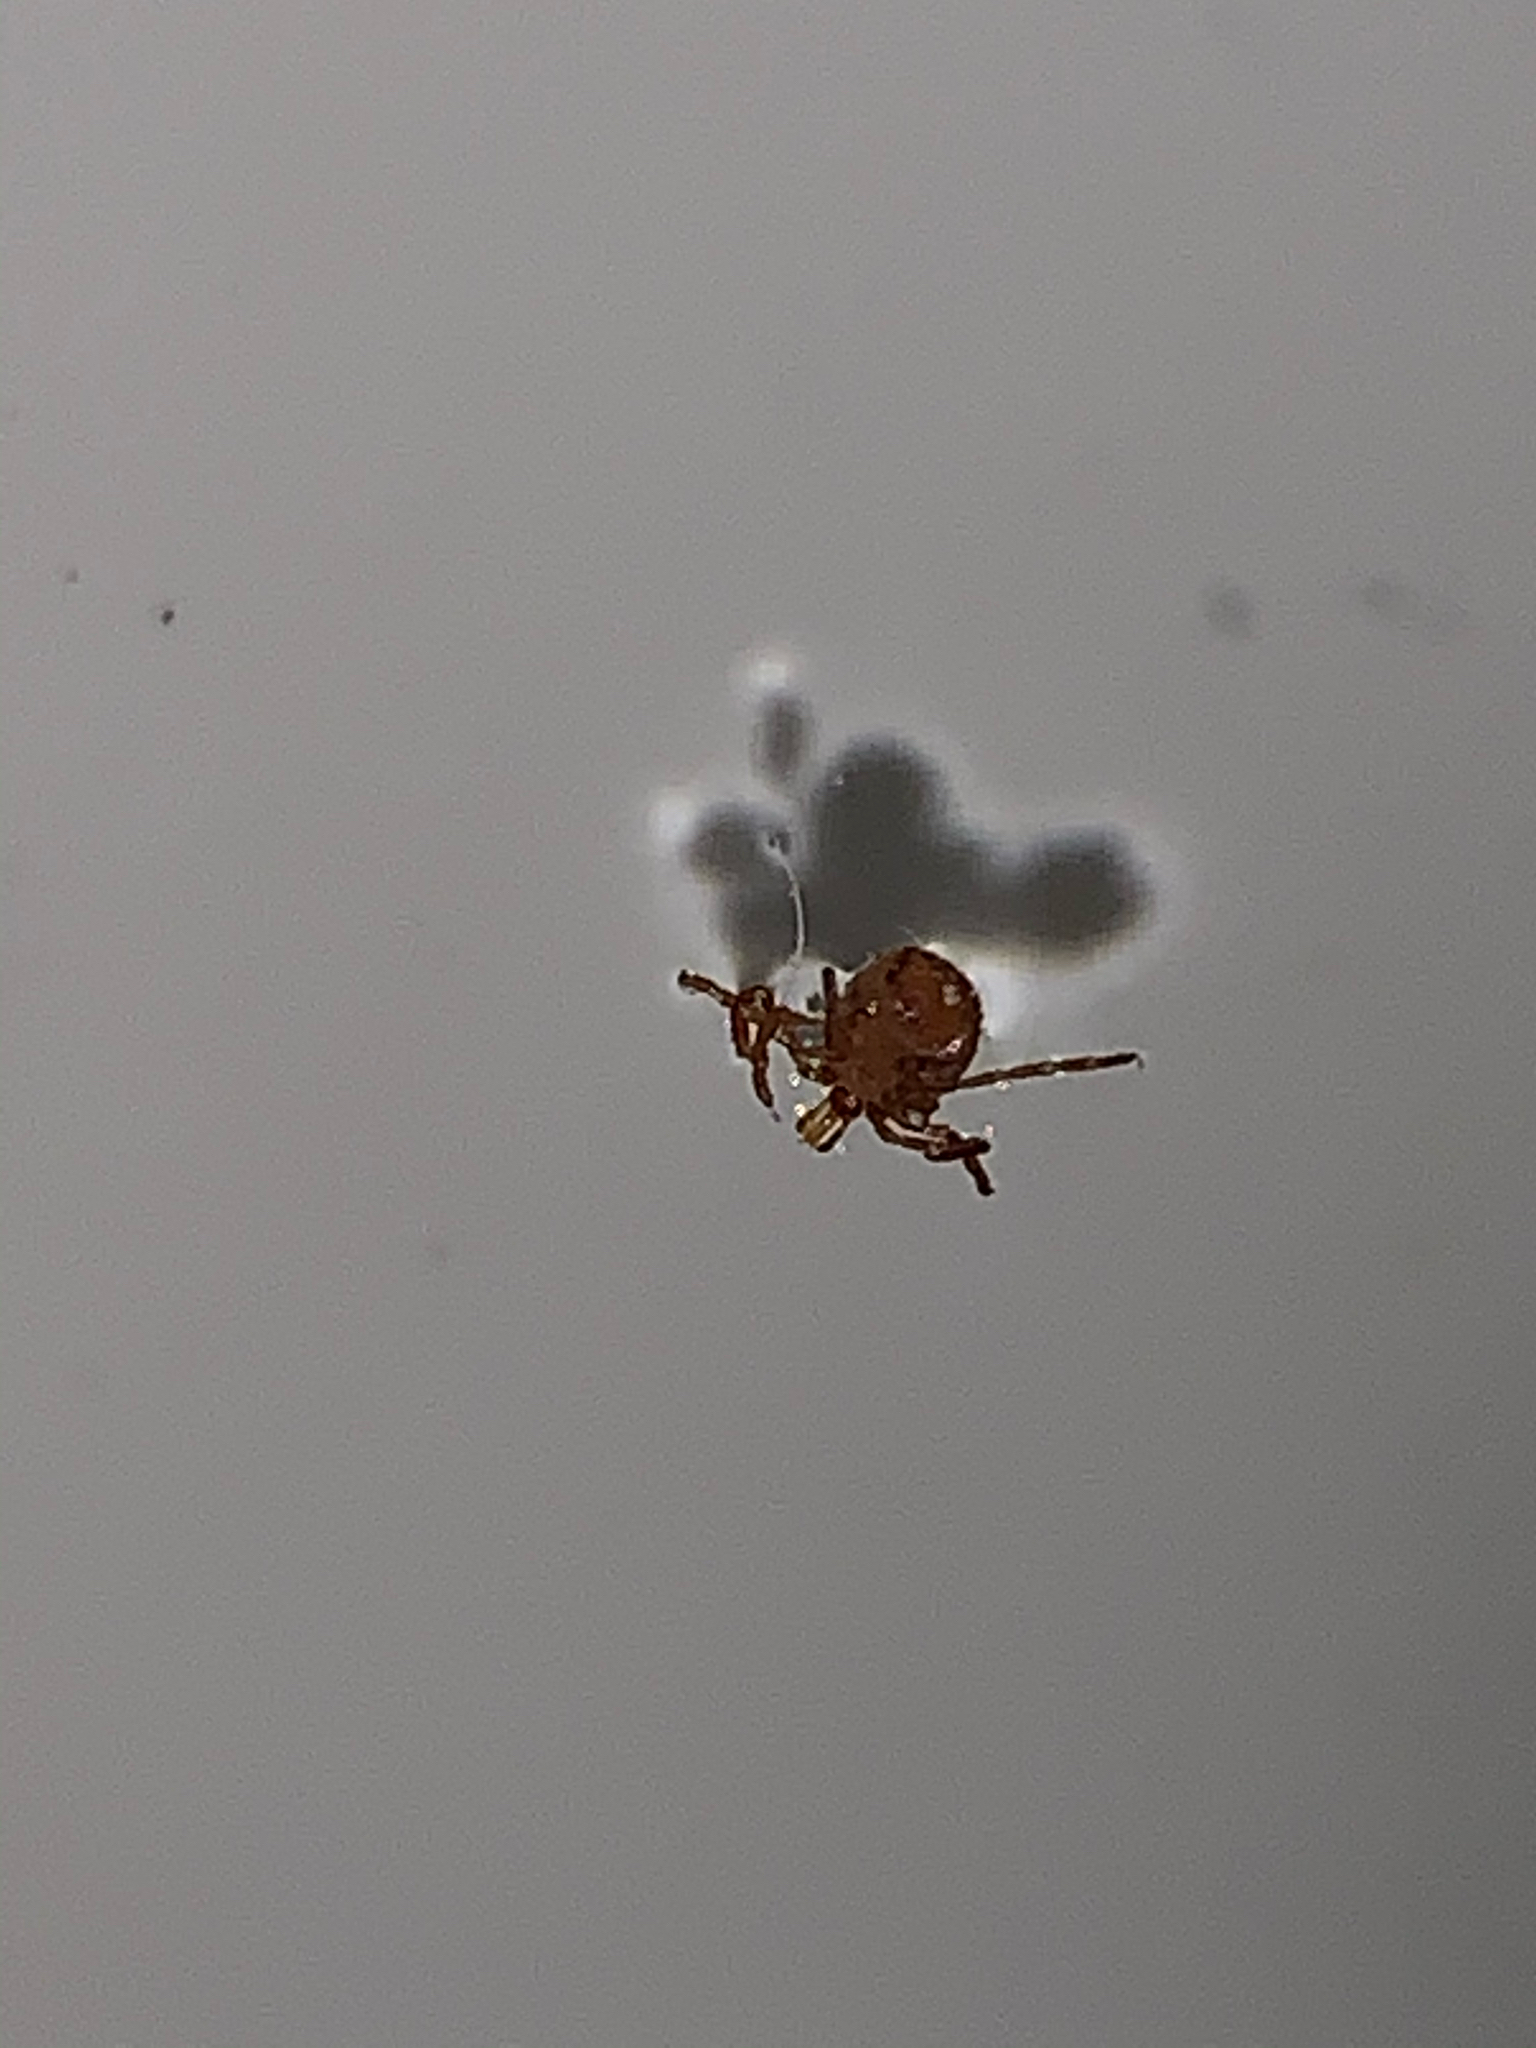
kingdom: Animalia
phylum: Arthropoda
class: Arachnida
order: Ixodida
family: Ixodidae
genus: Amblyomma
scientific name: Amblyomma americanum
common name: Lone star tick
